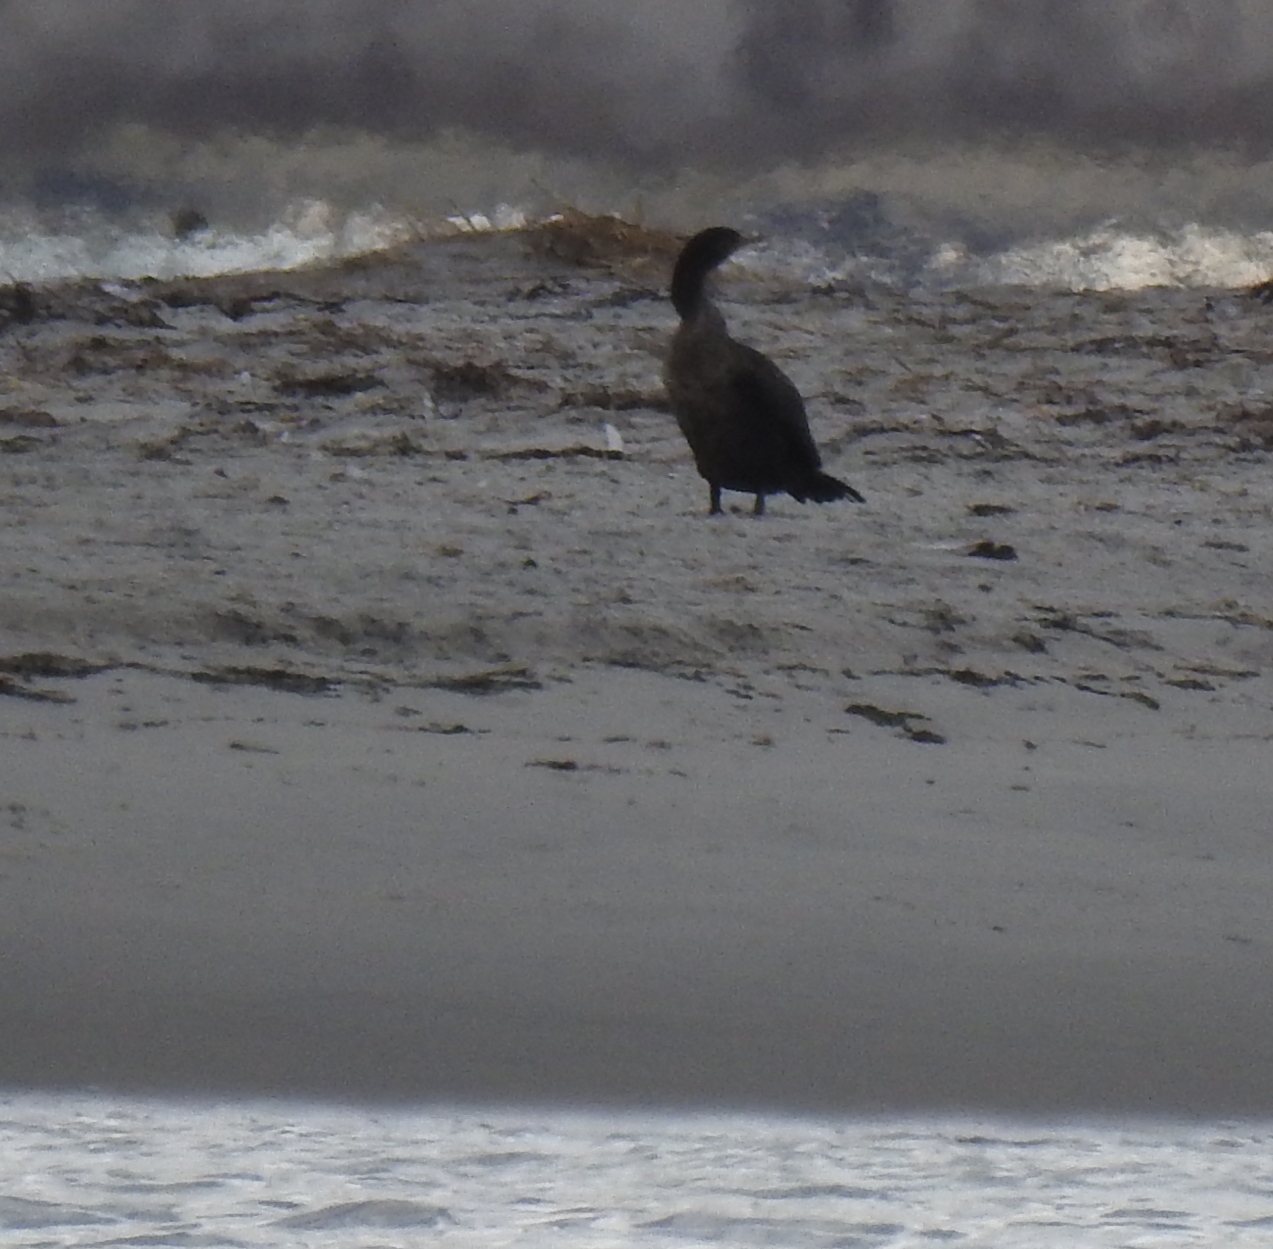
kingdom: Animalia
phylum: Chordata
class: Aves
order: Suliformes
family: Phalacrocoracidae
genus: Phalacrocorax
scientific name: Phalacrocorax auritus
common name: Double-crested cormorant
